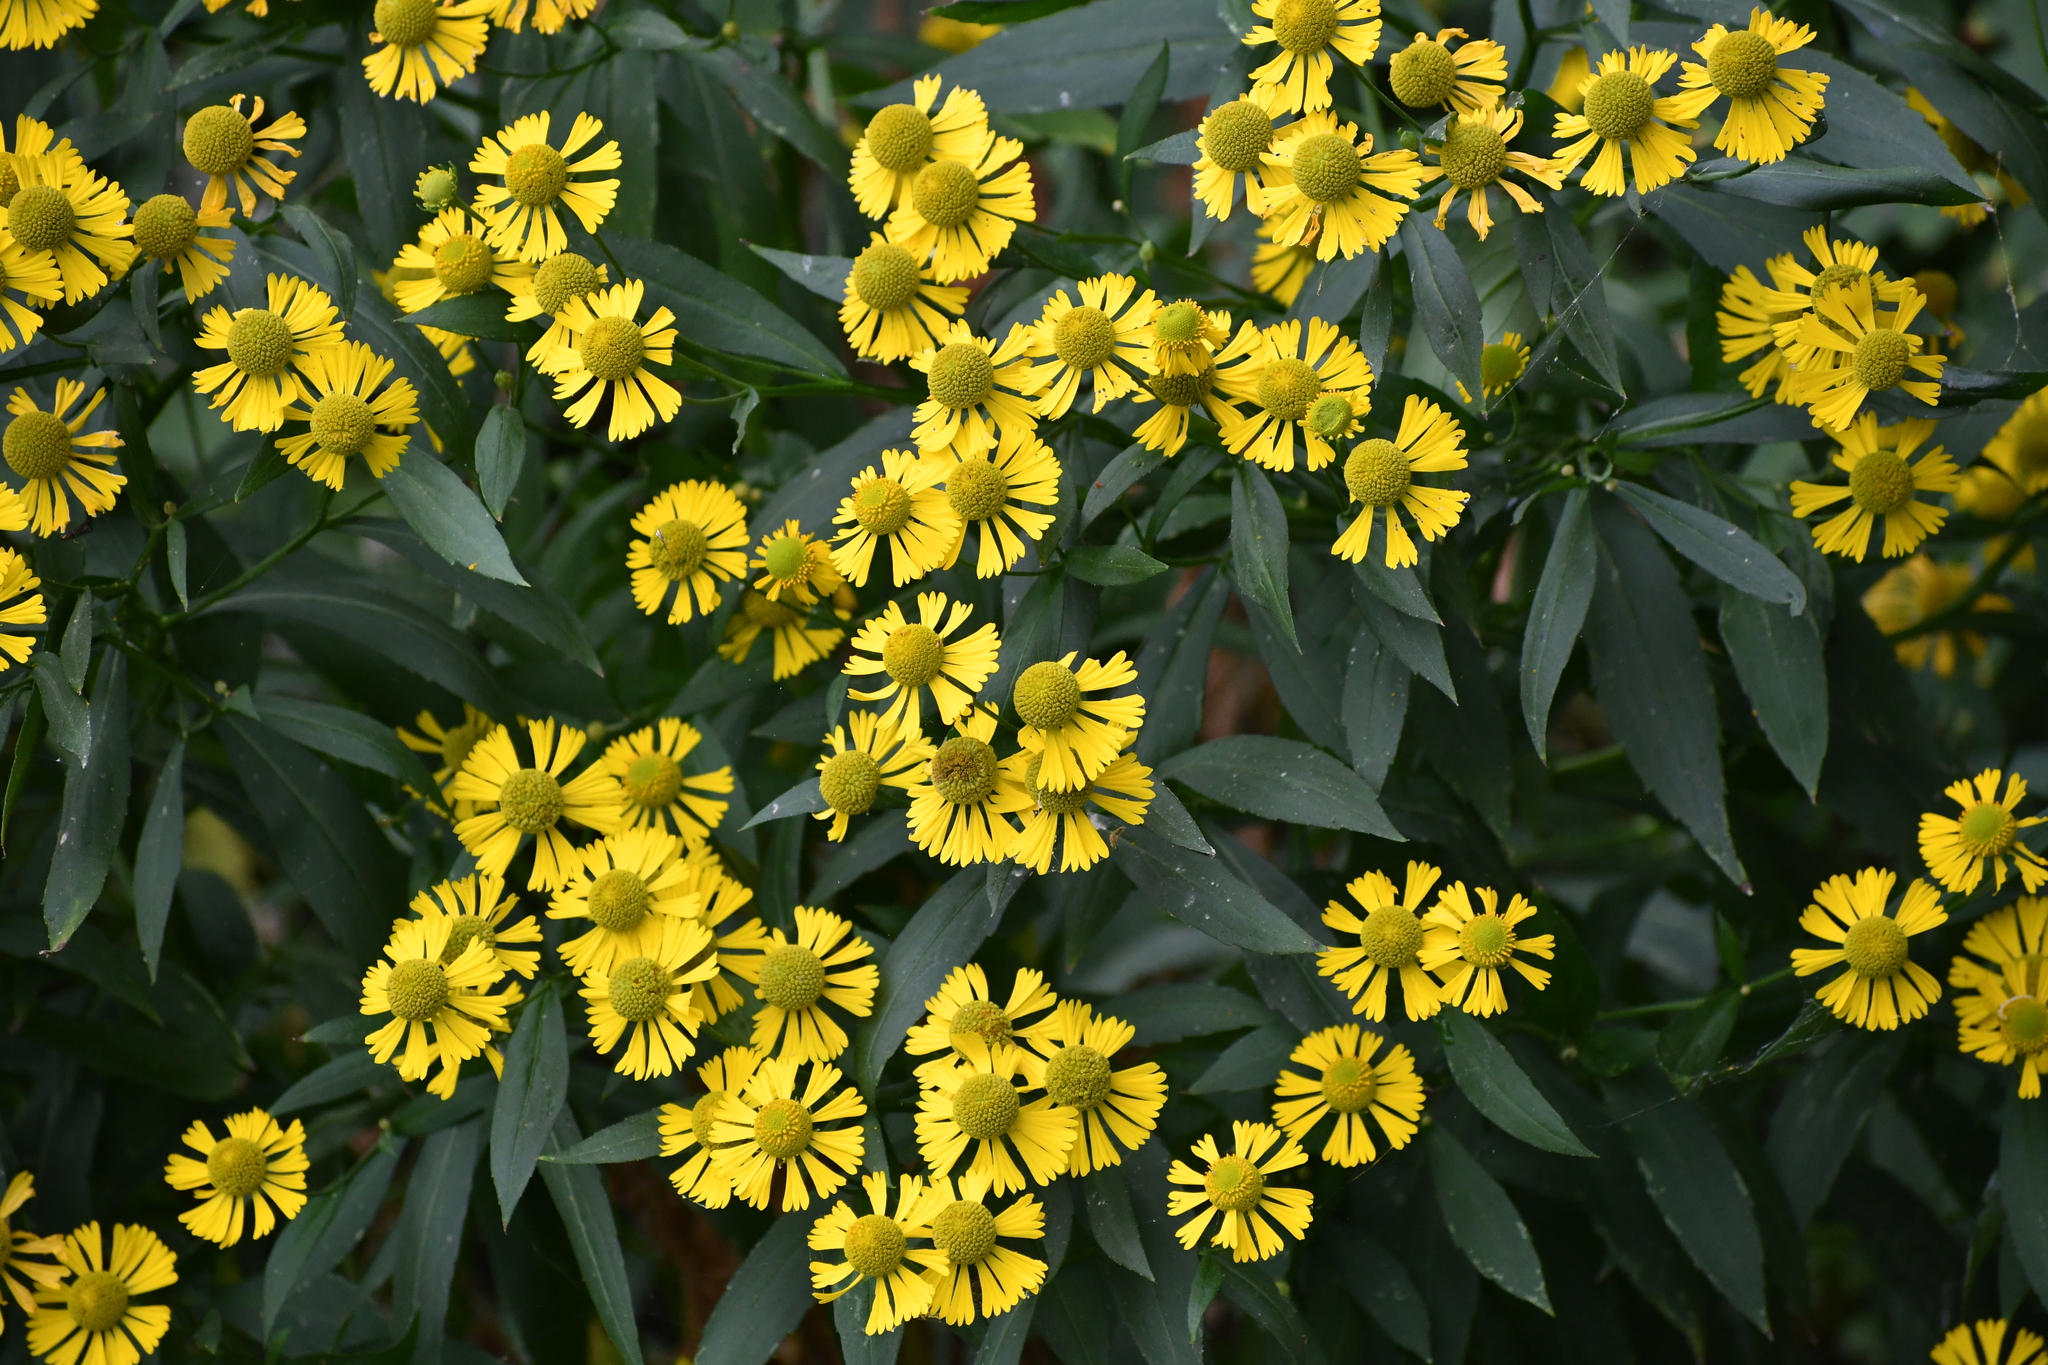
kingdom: Plantae
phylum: Tracheophyta
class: Magnoliopsida
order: Asterales
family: Asteraceae
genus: Helenium
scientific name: Helenium autumnale
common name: Sneezeweed
